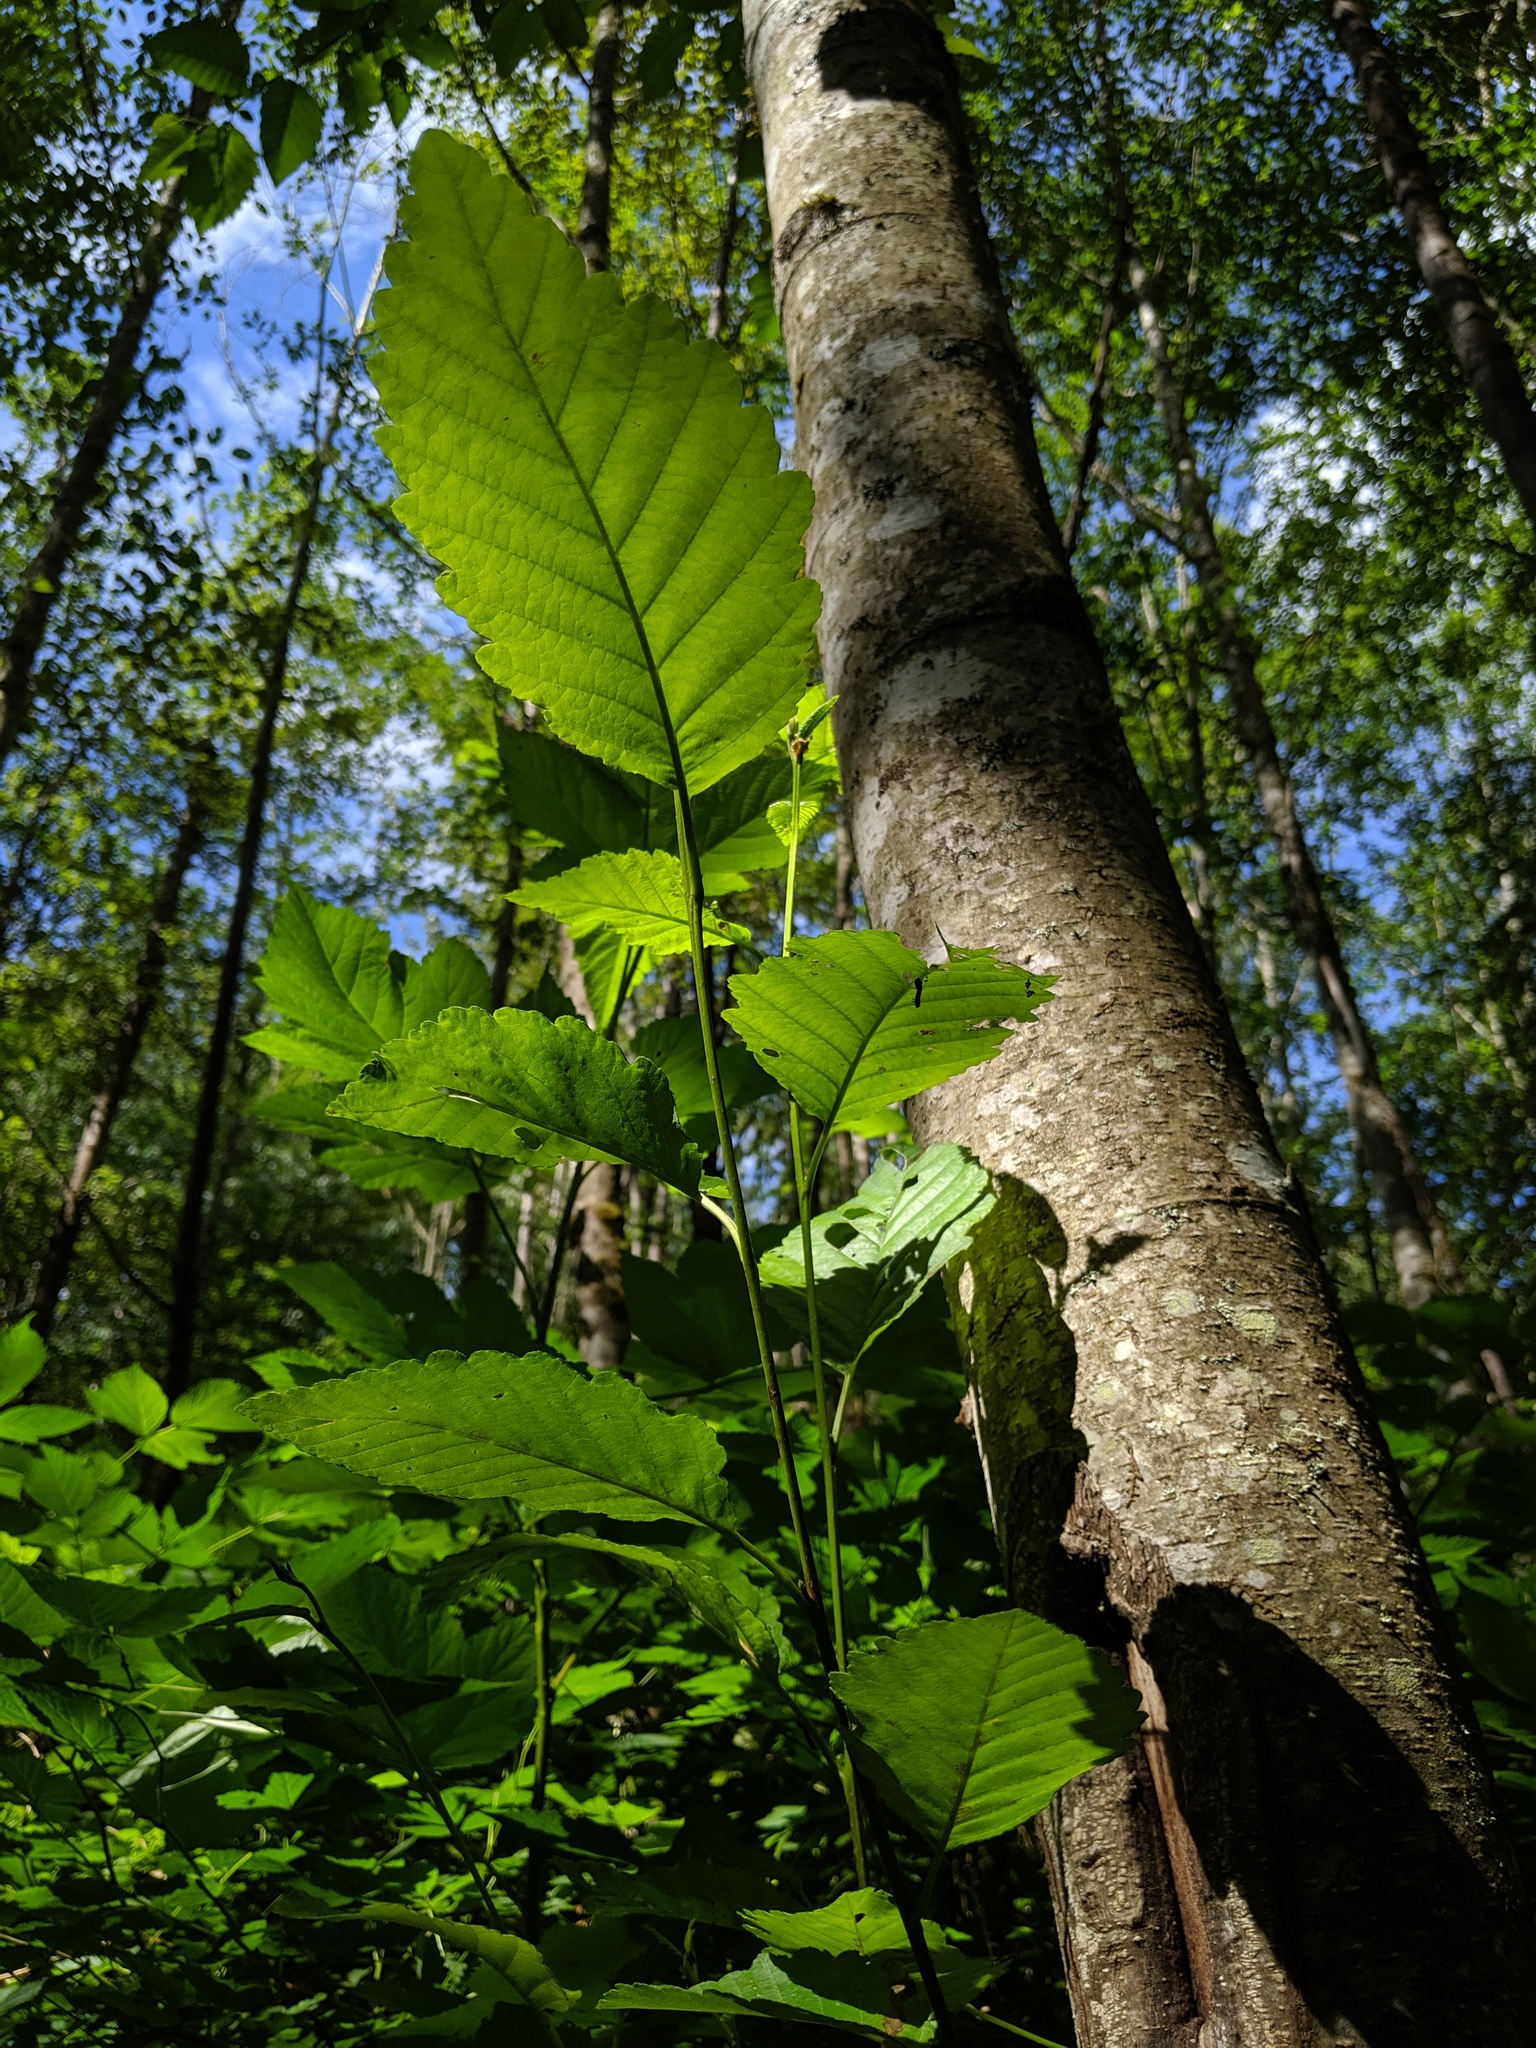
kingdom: Plantae
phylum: Tracheophyta
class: Magnoliopsida
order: Fagales
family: Betulaceae
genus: Alnus
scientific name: Alnus rubra
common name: Red alder
